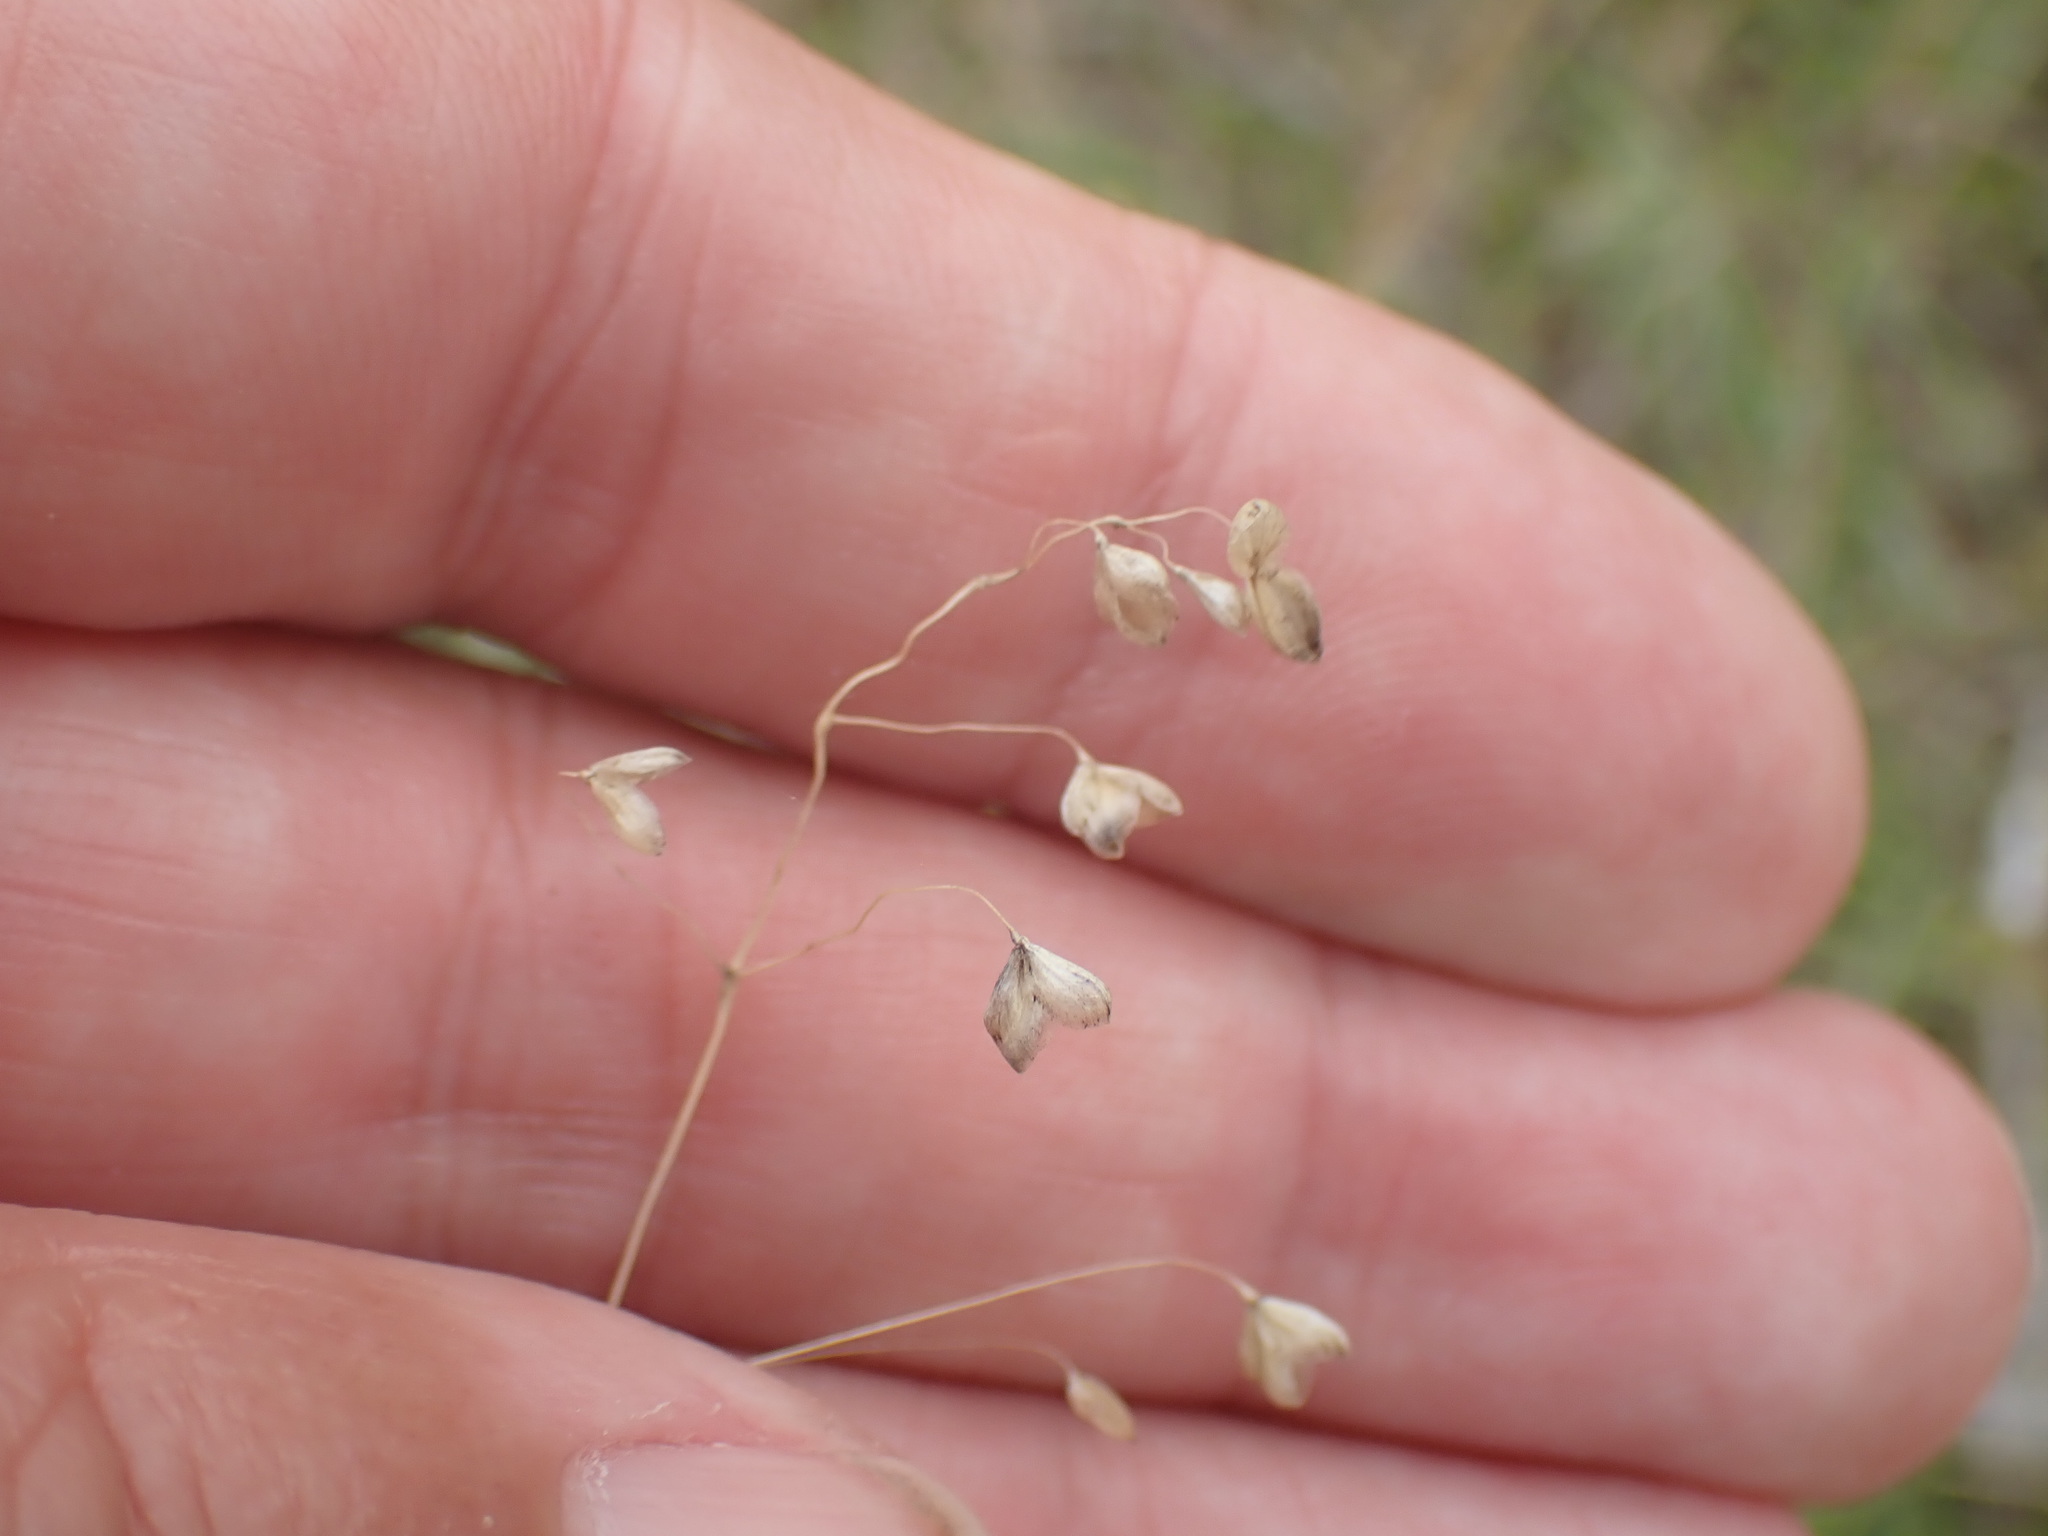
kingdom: Plantae
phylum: Tracheophyta
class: Liliopsida
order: Poales
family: Poaceae
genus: Briza
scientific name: Briza media
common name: Quaking grass
